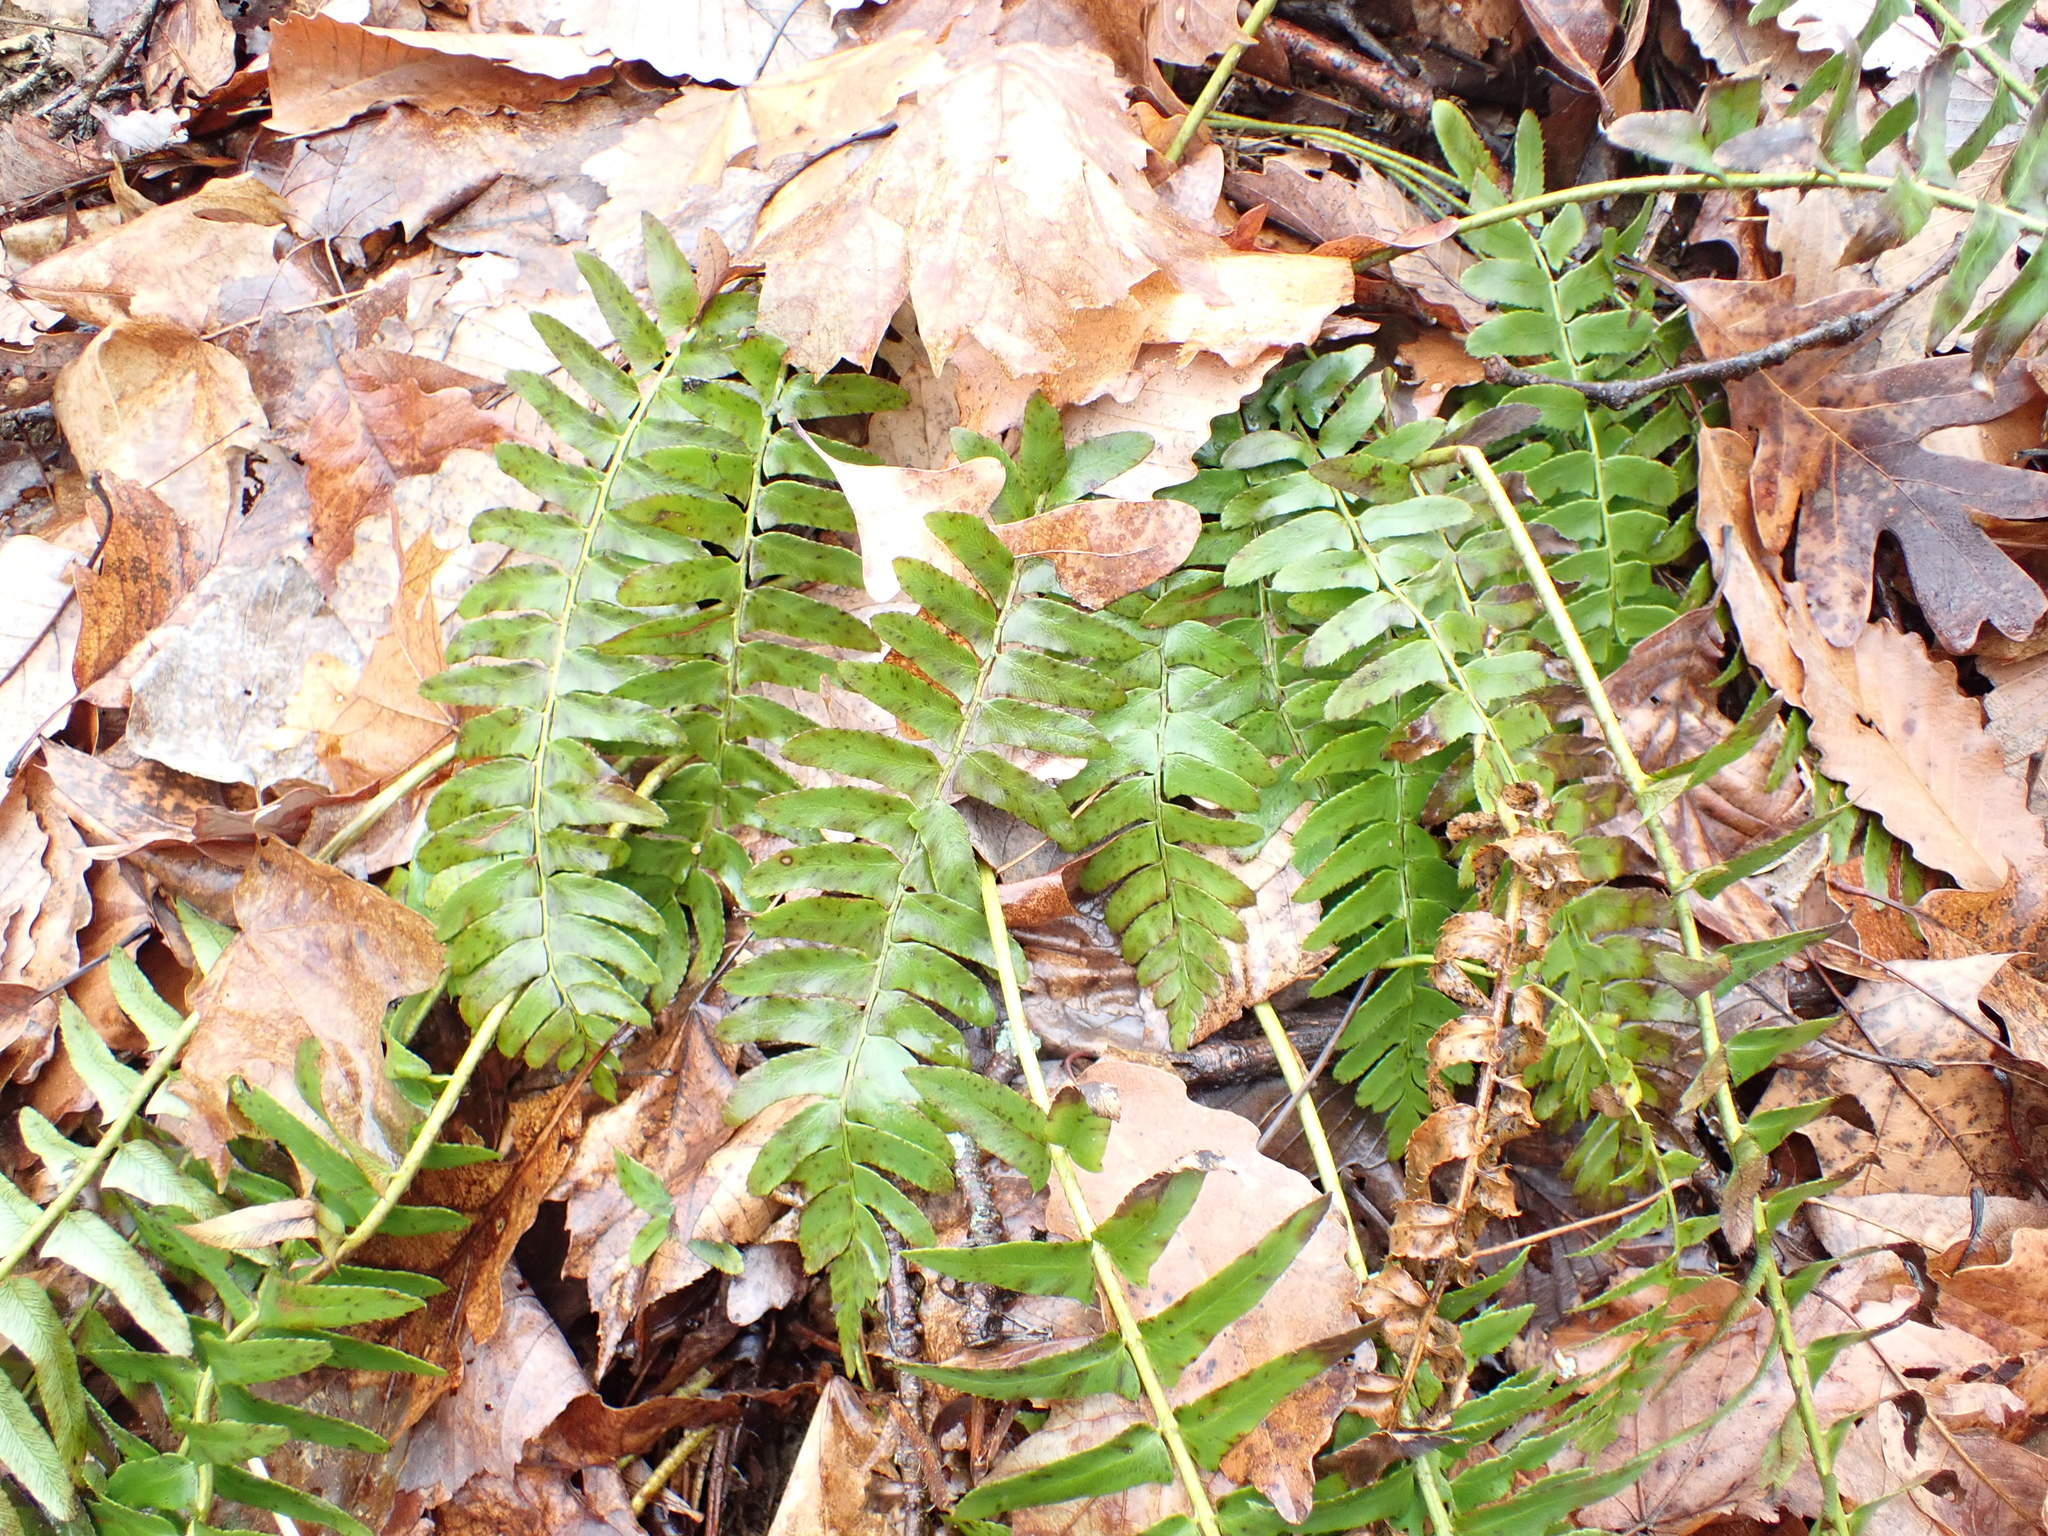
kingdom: Plantae
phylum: Tracheophyta
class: Polypodiopsida
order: Polypodiales
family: Dryopteridaceae
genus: Polystichum
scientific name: Polystichum acrostichoides
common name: Christmas fern
